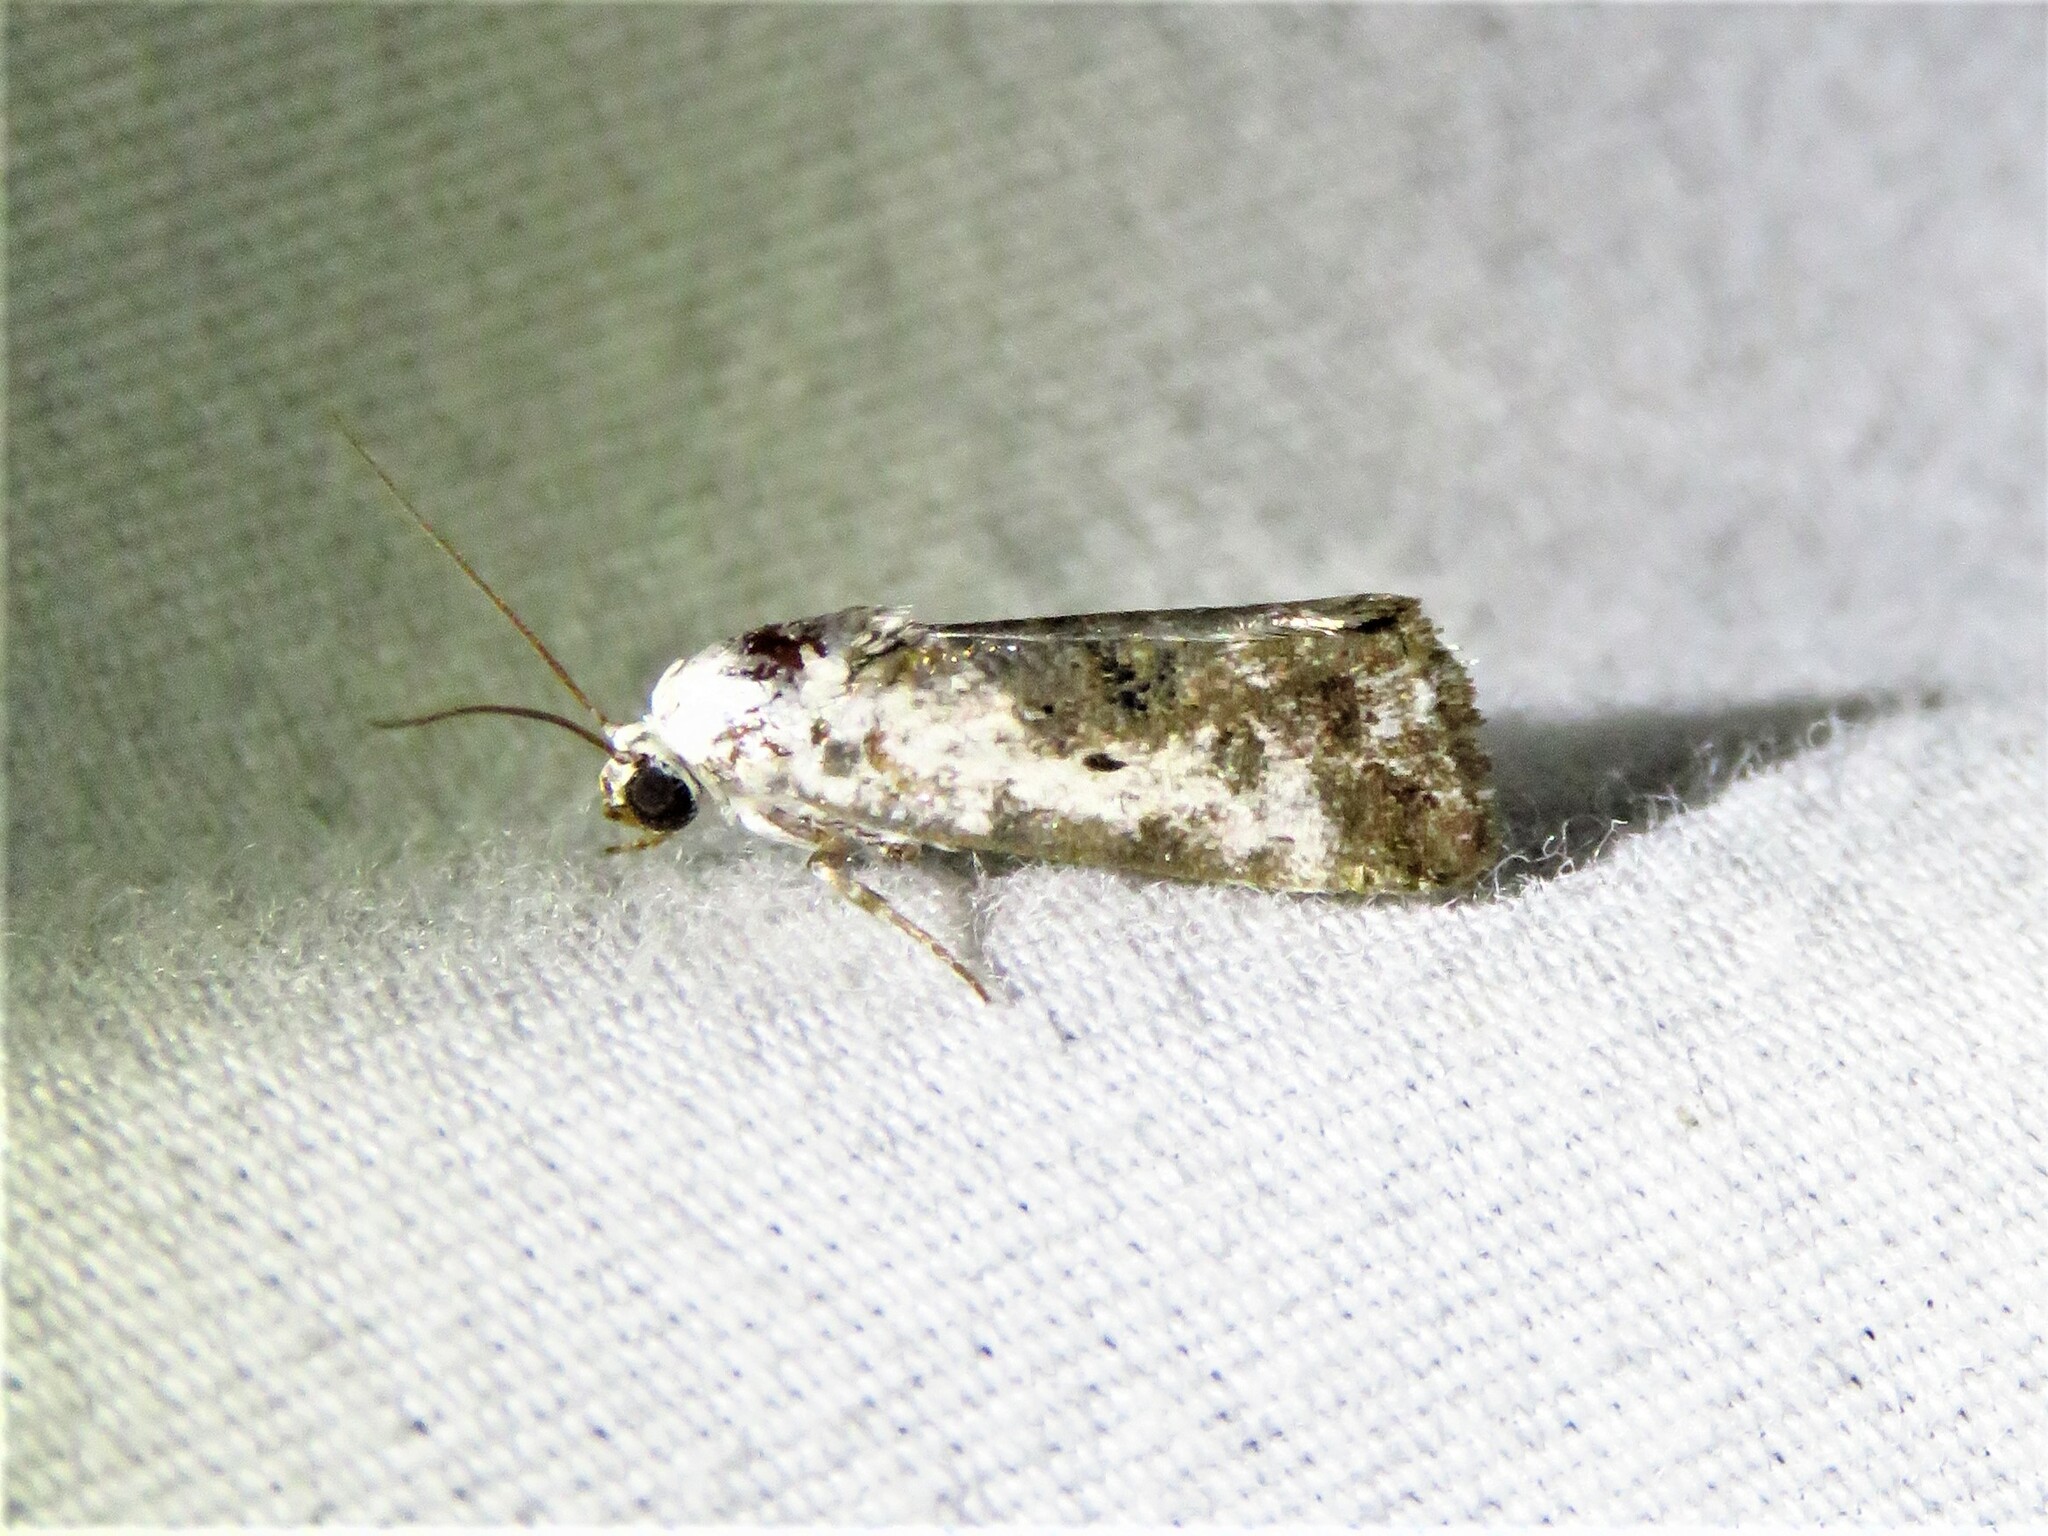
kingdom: Animalia
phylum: Arthropoda
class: Insecta
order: Lepidoptera
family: Noctuidae
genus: Acontia
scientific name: Acontia phecolisca
